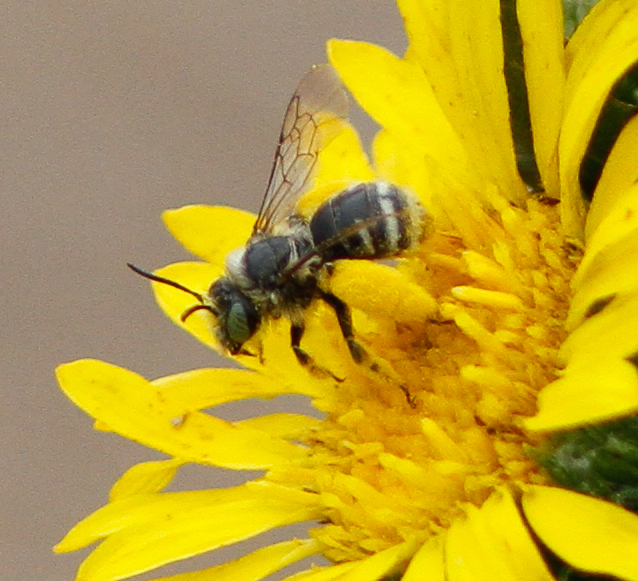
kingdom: Animalia
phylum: Arthropoda
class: Insecta
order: Hymenoptera
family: Apidae
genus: Melissodes
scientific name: Melissodes lupinus
